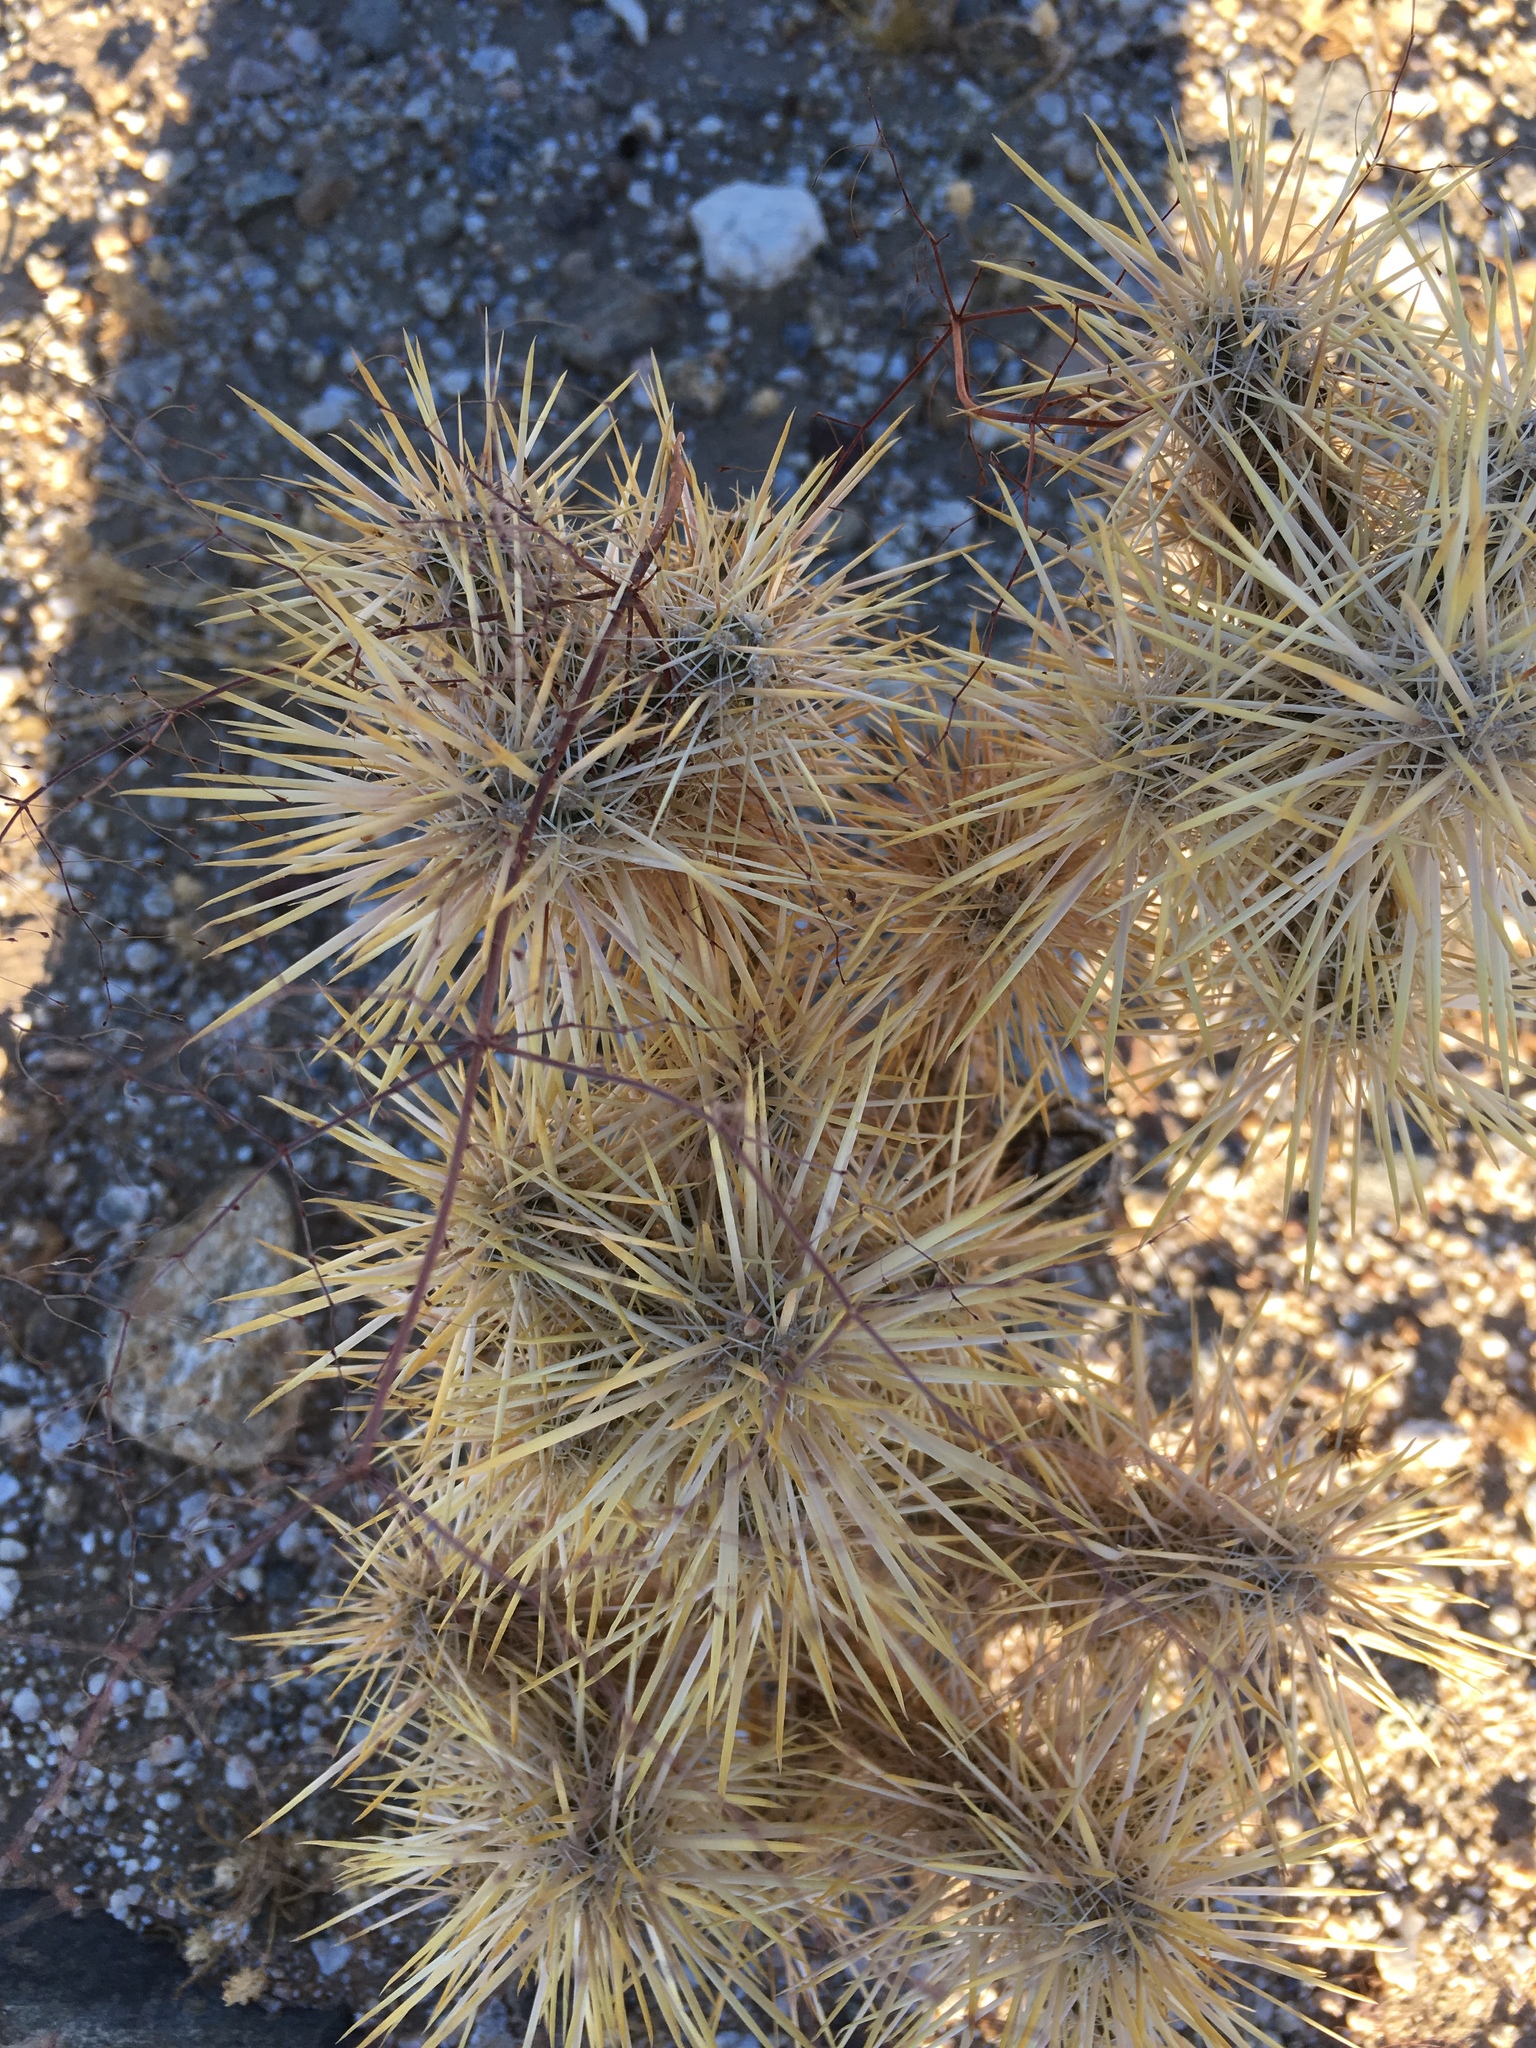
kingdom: Plantae
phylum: Tracheophyta
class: Magnoliopsida
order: Caryophyllales
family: Cactaceae
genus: Cylindropuntia
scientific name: Cylindropuntia echinocarpa
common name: Ground cholla
